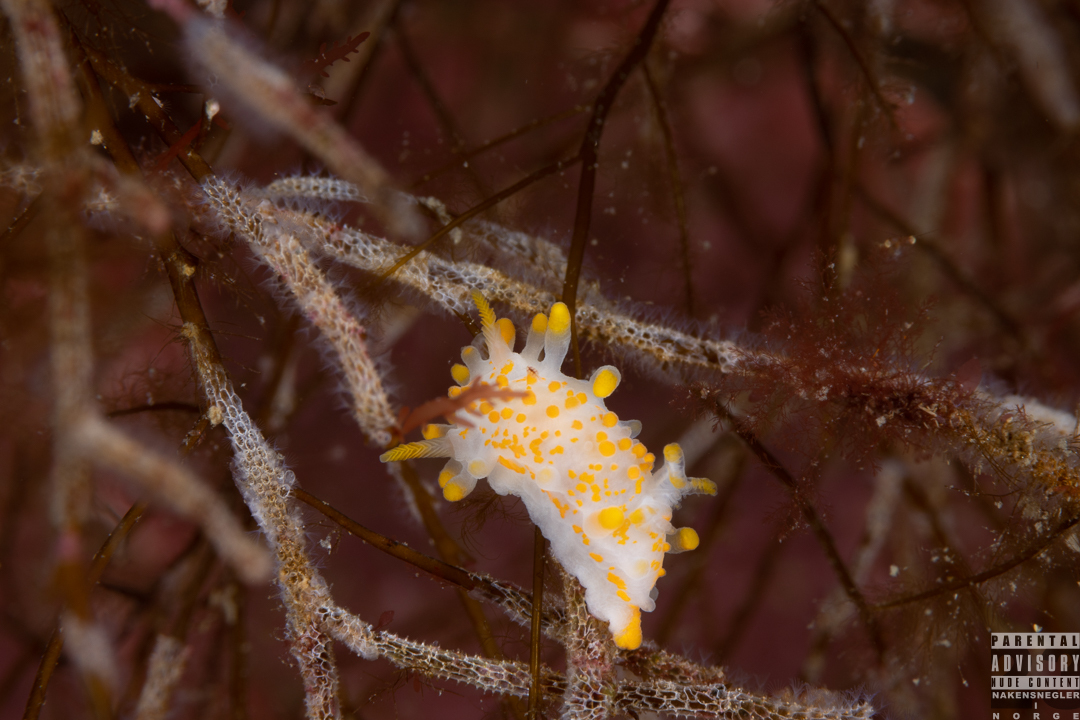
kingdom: Animalia
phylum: Mollusca
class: Gastropoda
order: Nudibranchia
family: Polyceridae
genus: Limacia
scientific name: Limacia clavigera
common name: Orange-clubbed sea slug
